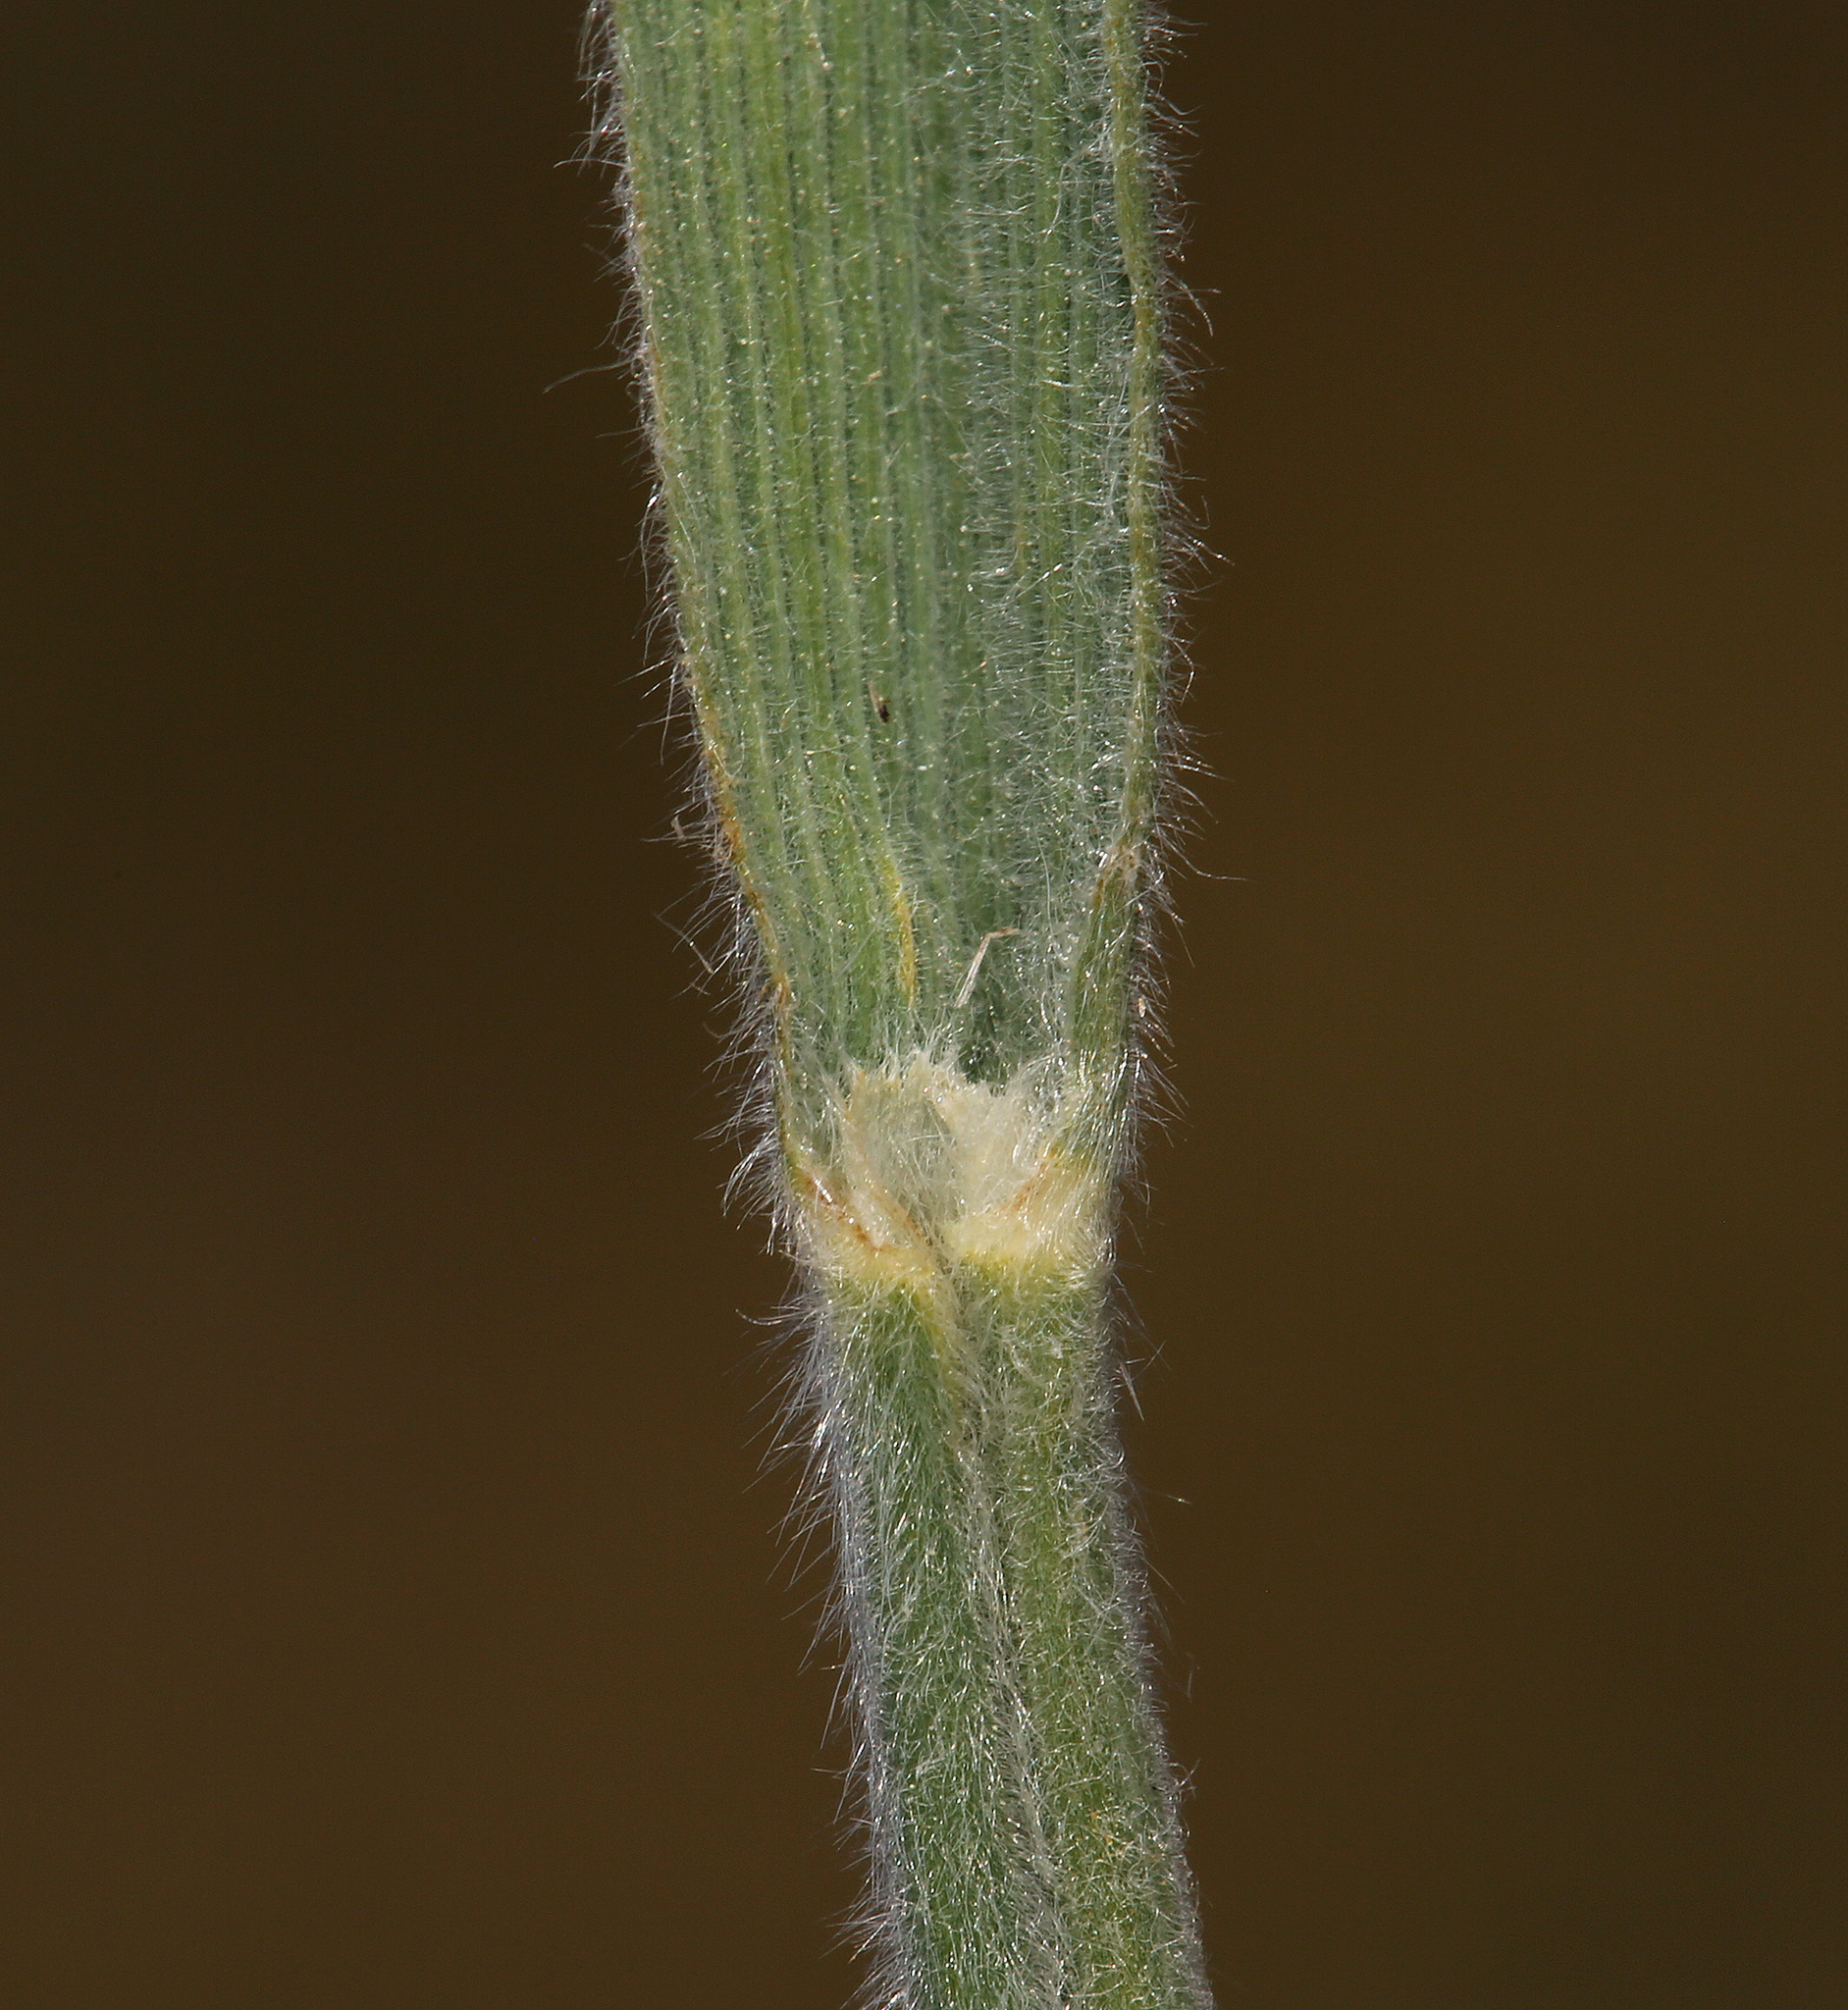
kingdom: Plantae
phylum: Tracheophyta
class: Liliopsida
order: Poales
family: Poaceae
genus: Koeleria
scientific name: Koeleria spicata
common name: Mountain trisetum
